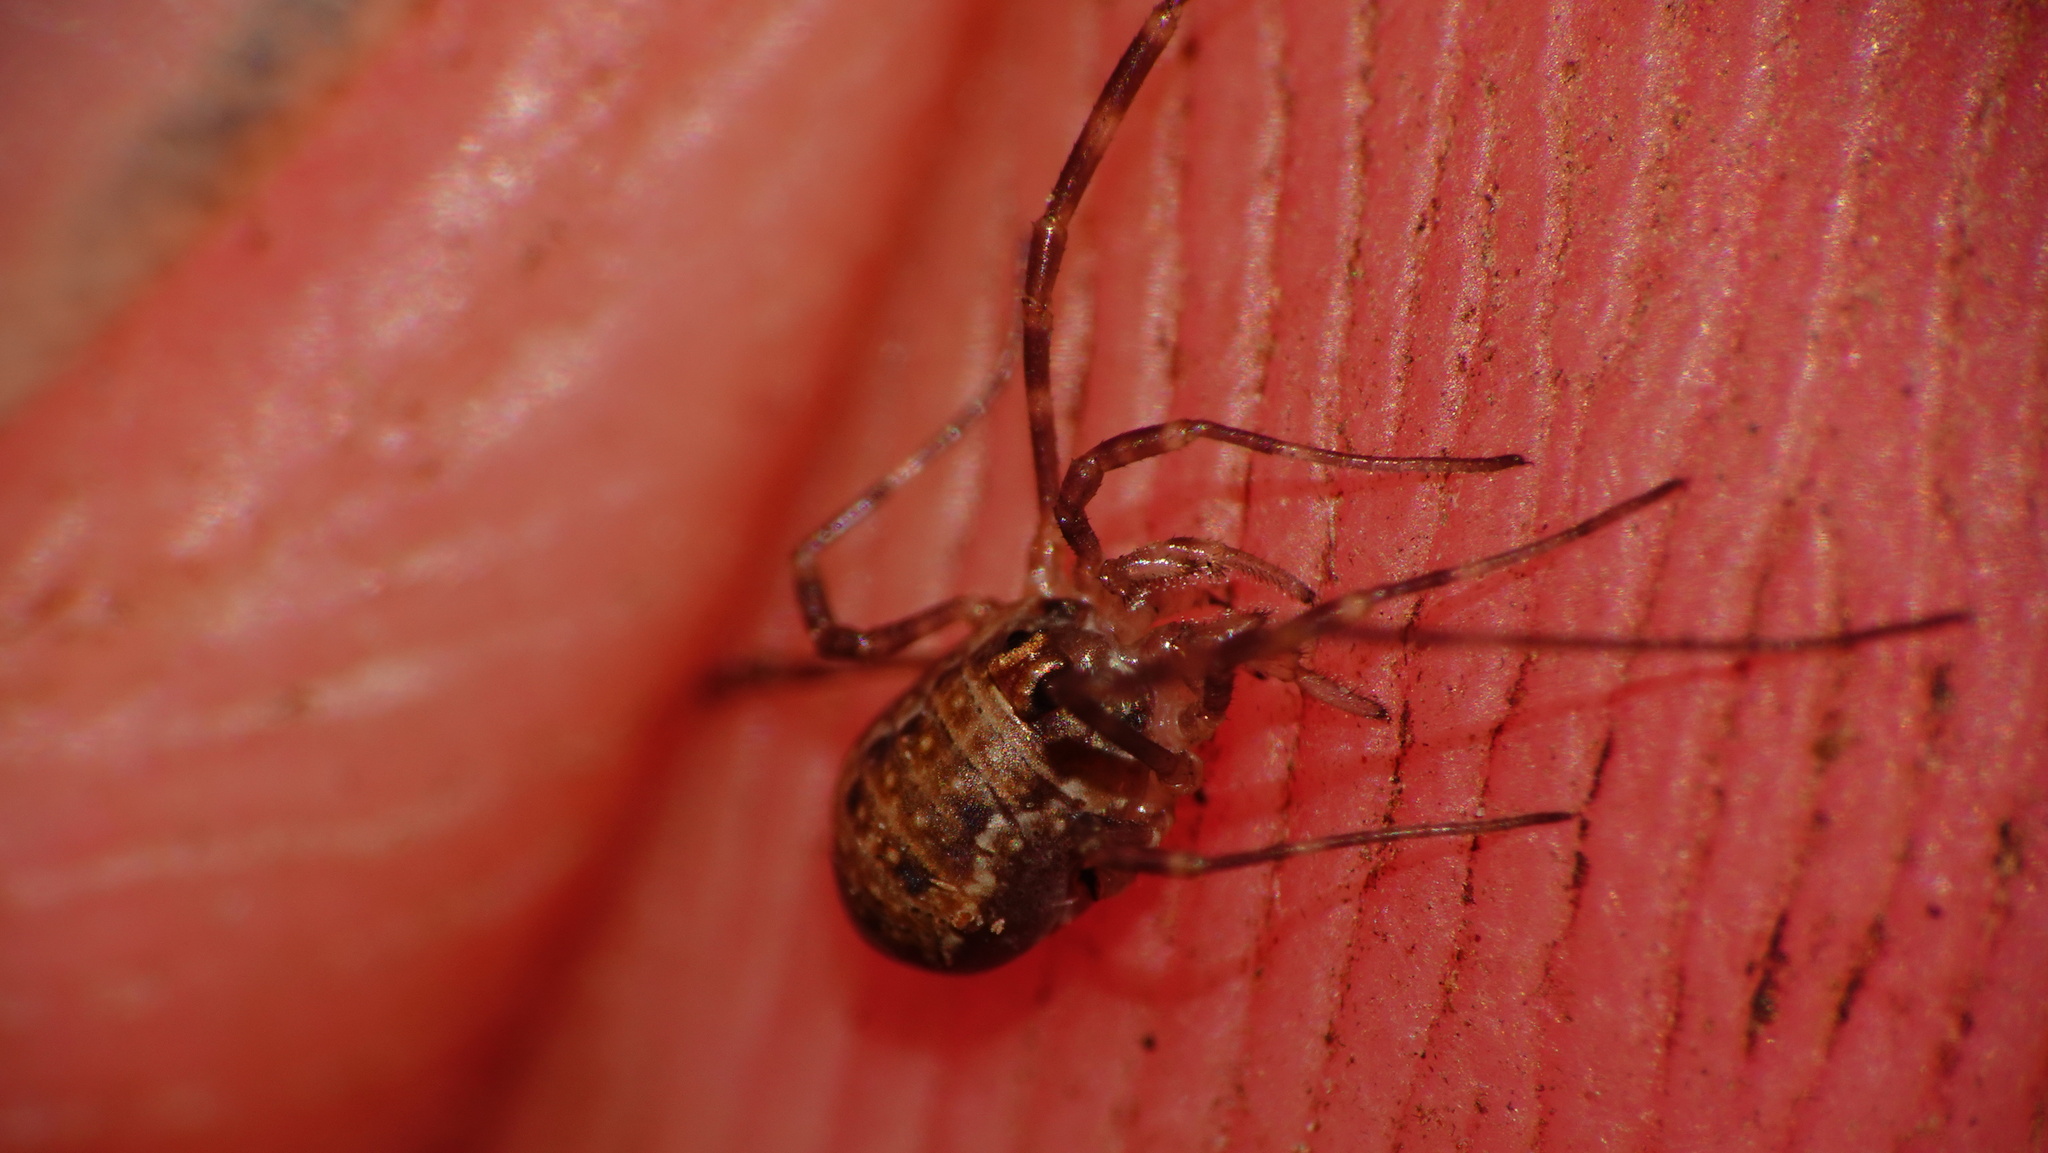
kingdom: Animalia
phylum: Arthropoda
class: Arachnida
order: Opiliones
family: Phalangiidae
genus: Dasylobus
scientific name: Dasylobus graniferus
